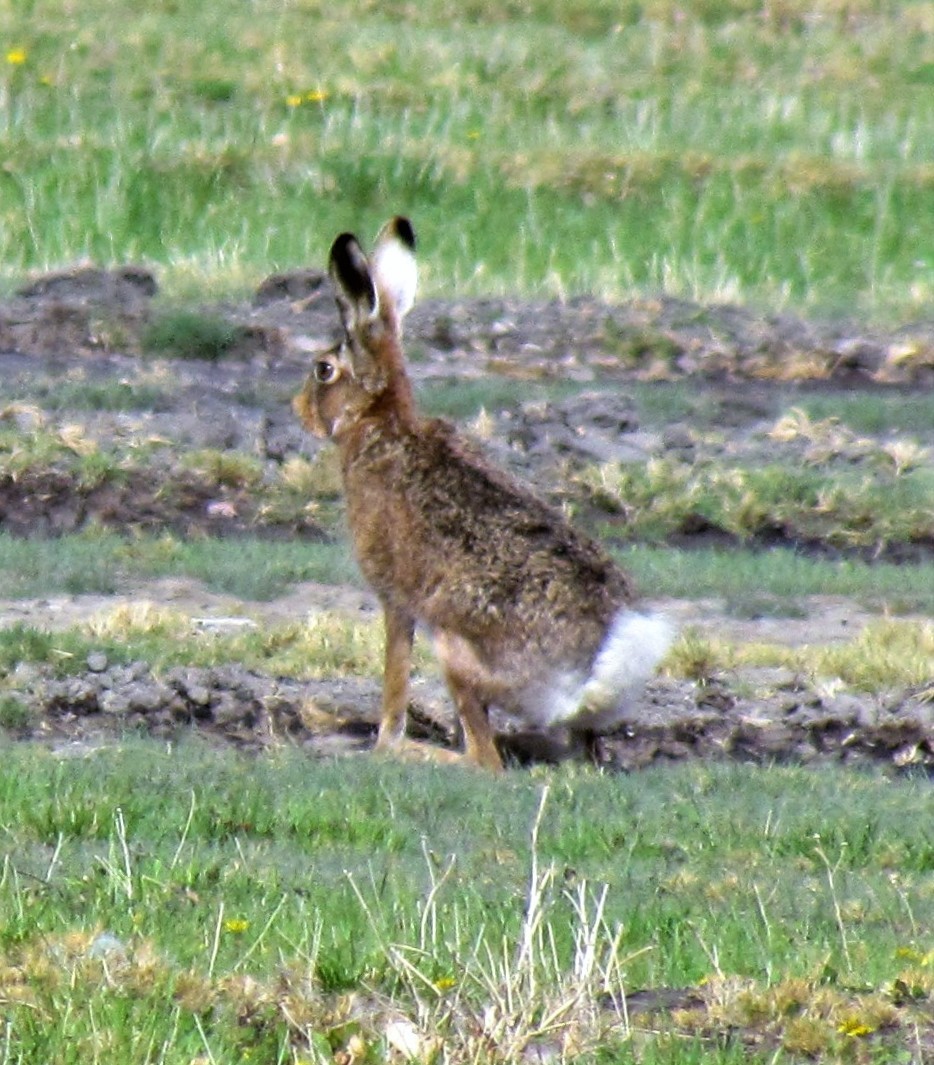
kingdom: Animalia
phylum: Chordata
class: Mammalia
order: Lagomorpha
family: Leporidae
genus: Lepus
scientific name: Lepus europaeus
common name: European hare
